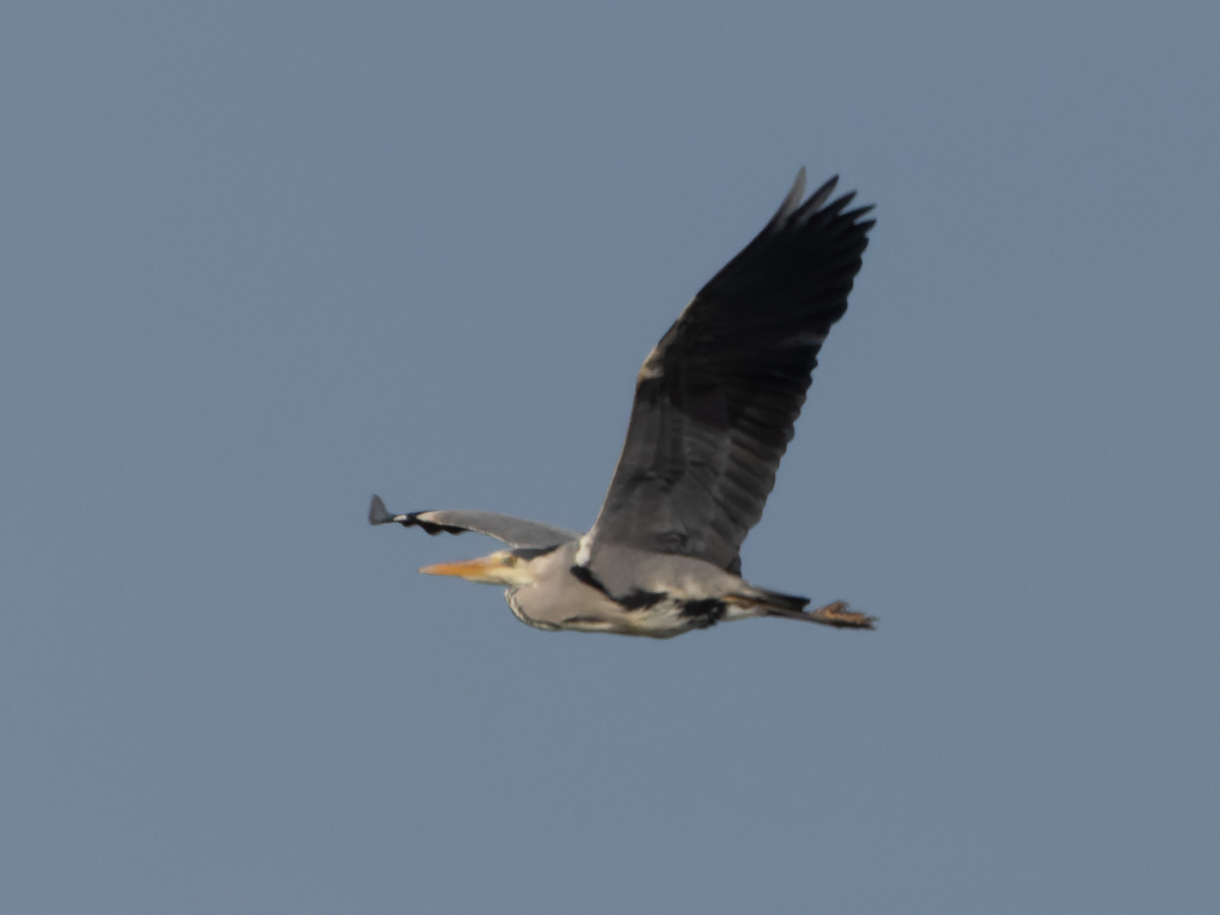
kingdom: Animalia
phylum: Chordata
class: Aves
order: Pelecaniformes
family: Ardeidae
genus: Ardea
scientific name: Ardea cinerea
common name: Grey heron
